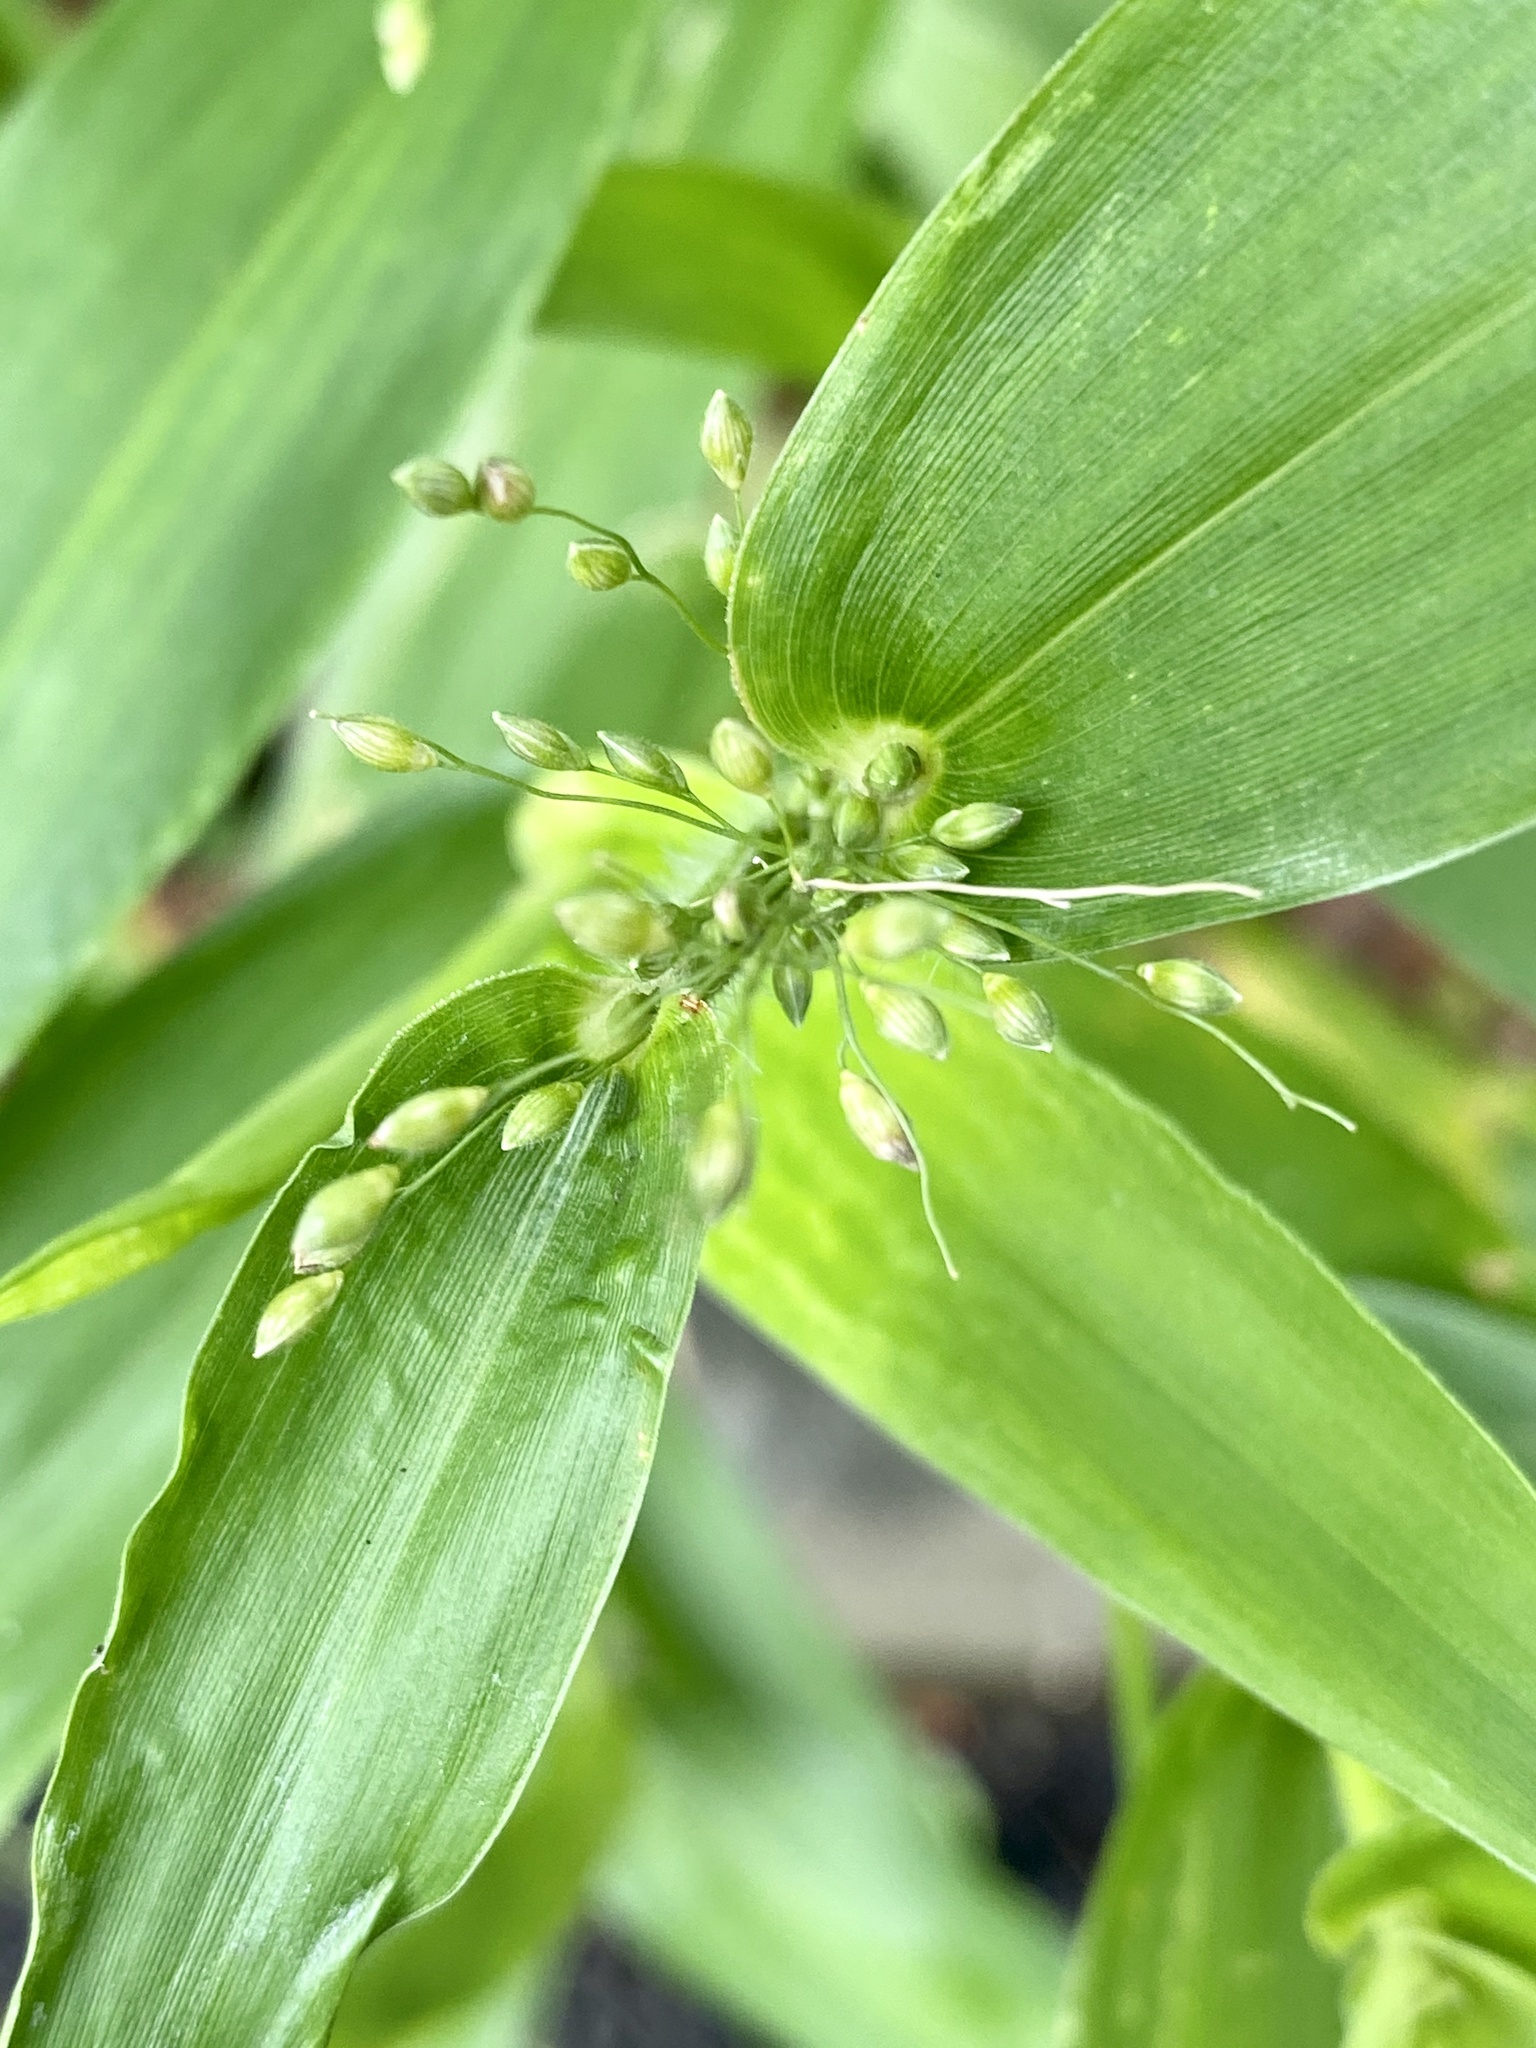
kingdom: Plantae
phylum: Tracheophyta
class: Liliopsida
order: Poales
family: Poaceae
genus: Dichanthelium
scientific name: Dichanthelium clandestinum
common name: Deer-tongue grass
